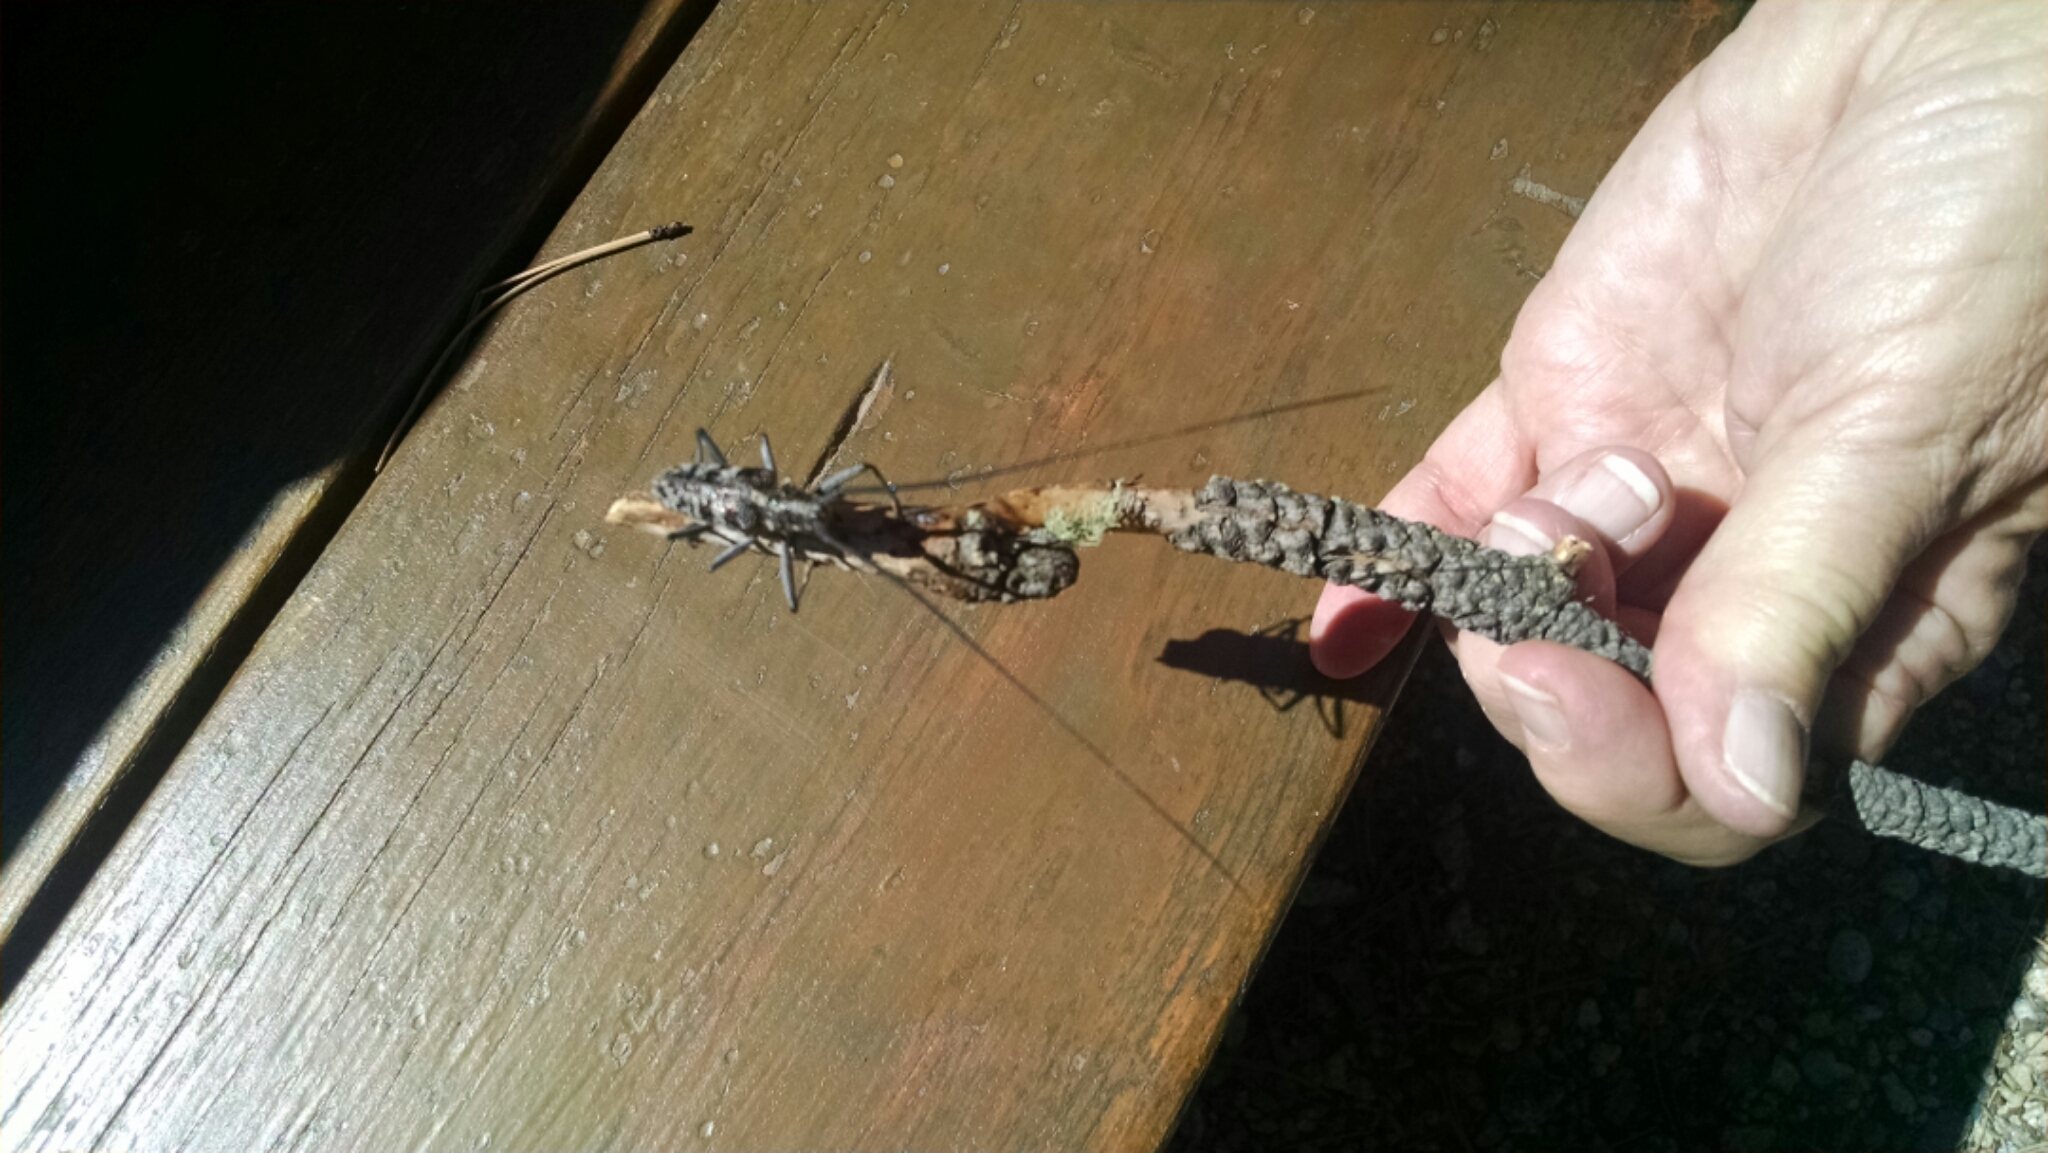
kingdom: Animalia
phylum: Arthropoda
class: Insecta
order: Coleoptera
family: Cerambycidae
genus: Monochamus
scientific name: Monochamus clamator
